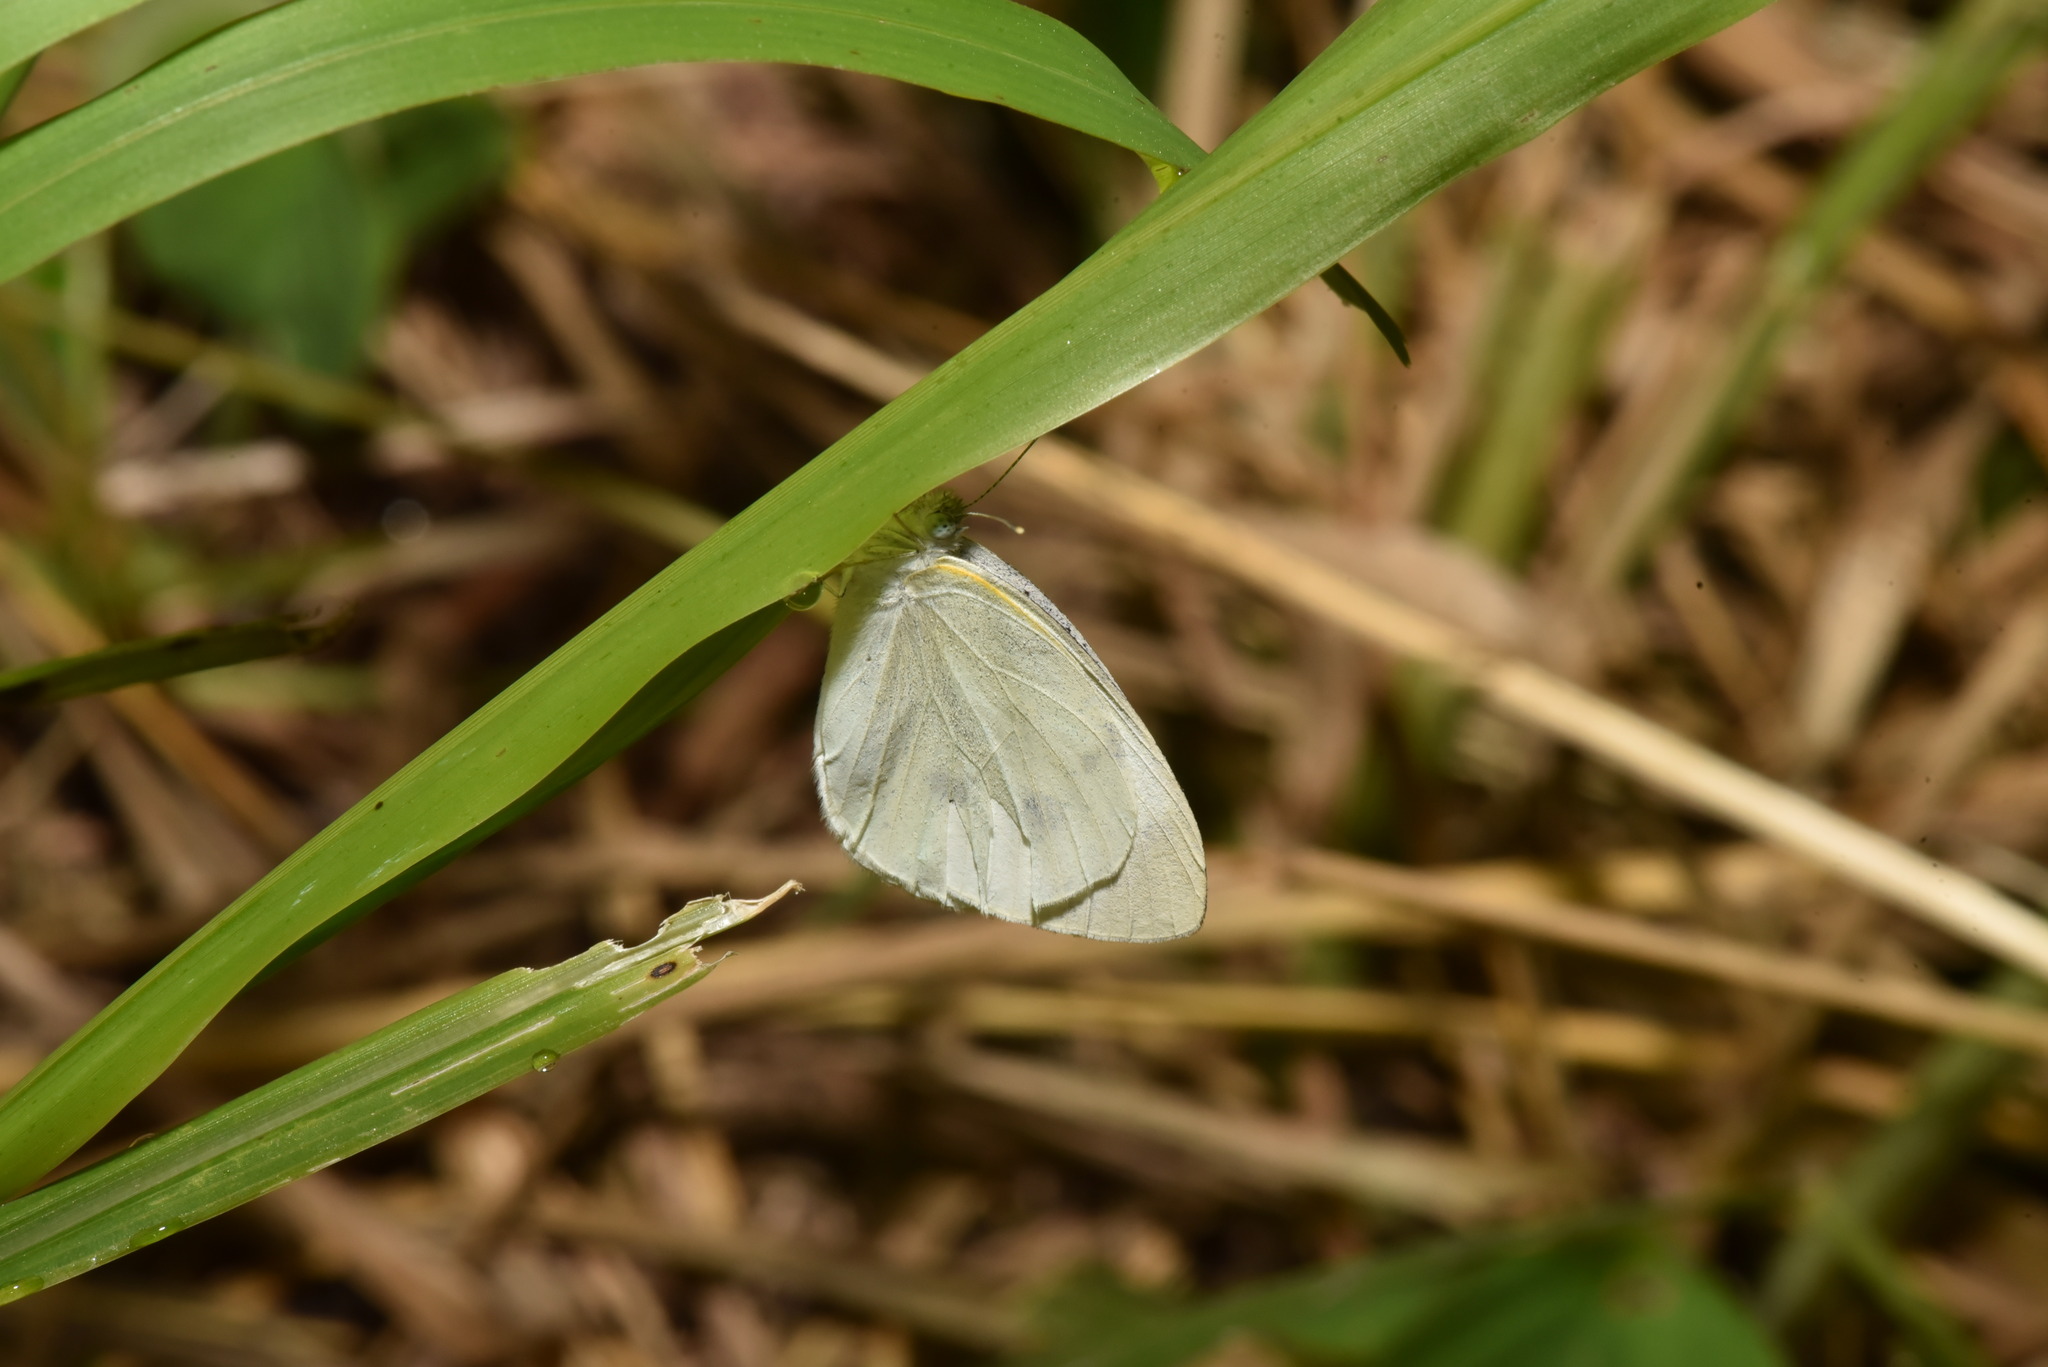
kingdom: Animalia
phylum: Arthropoda
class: Insecta
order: Lepidoptera
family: Pieridae
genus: Pieris
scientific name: Pieris rapae
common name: Small white
